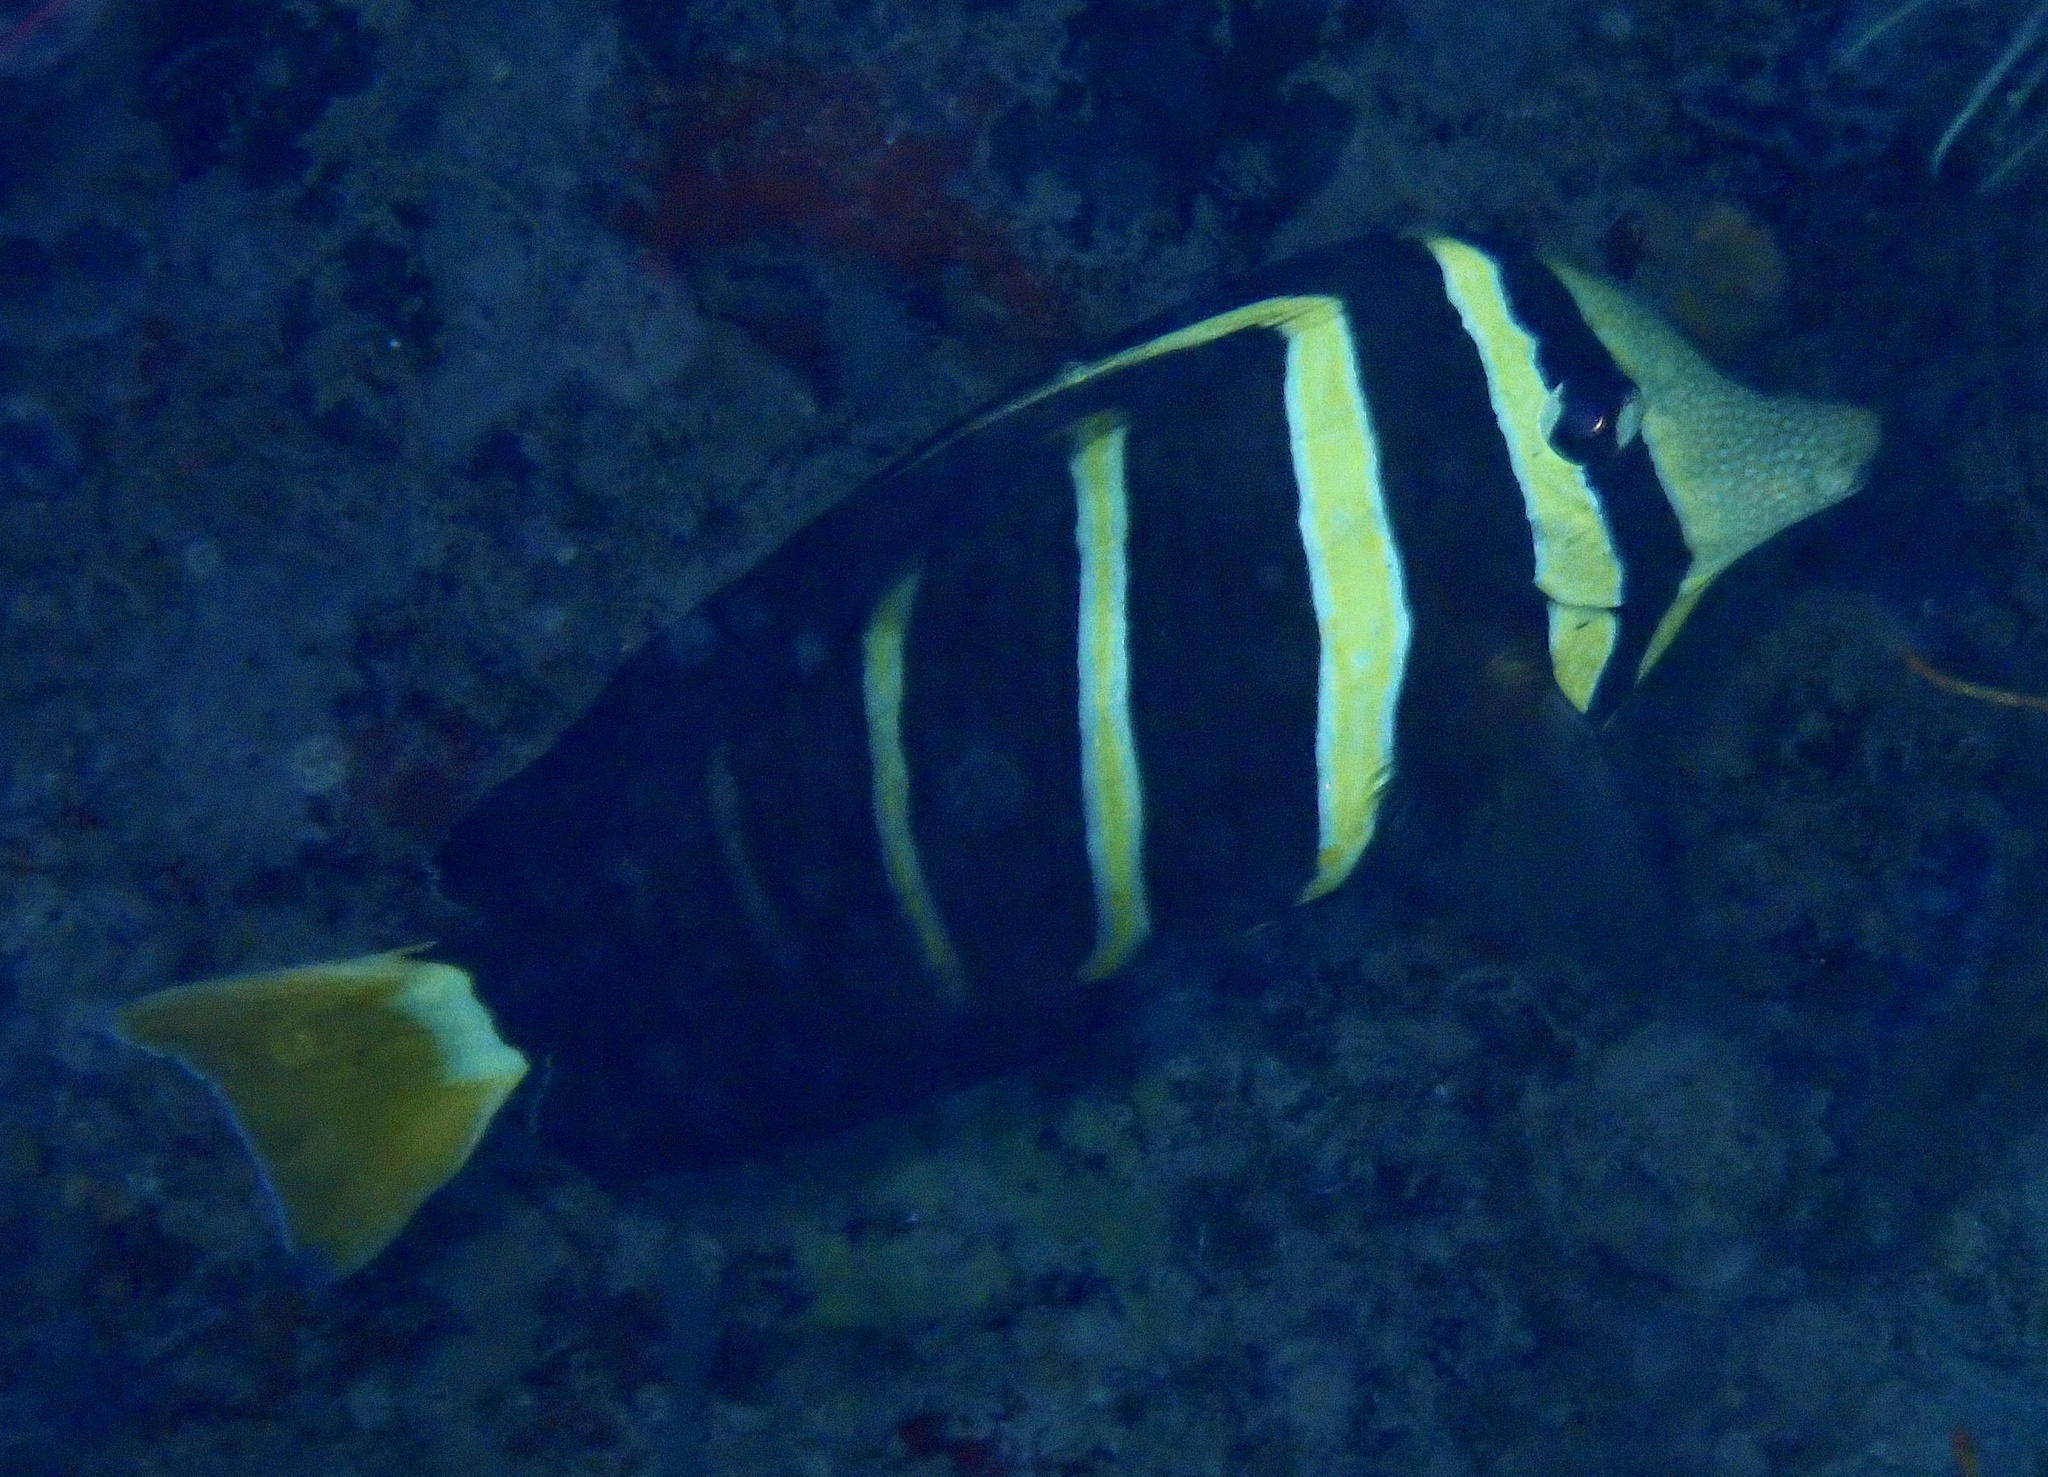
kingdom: Animalia
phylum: Chordata
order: Perciformes
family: Acanthuridae
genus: Zebrasoma
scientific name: Zebrasoma veliferum
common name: Sailfin surgeonfish
